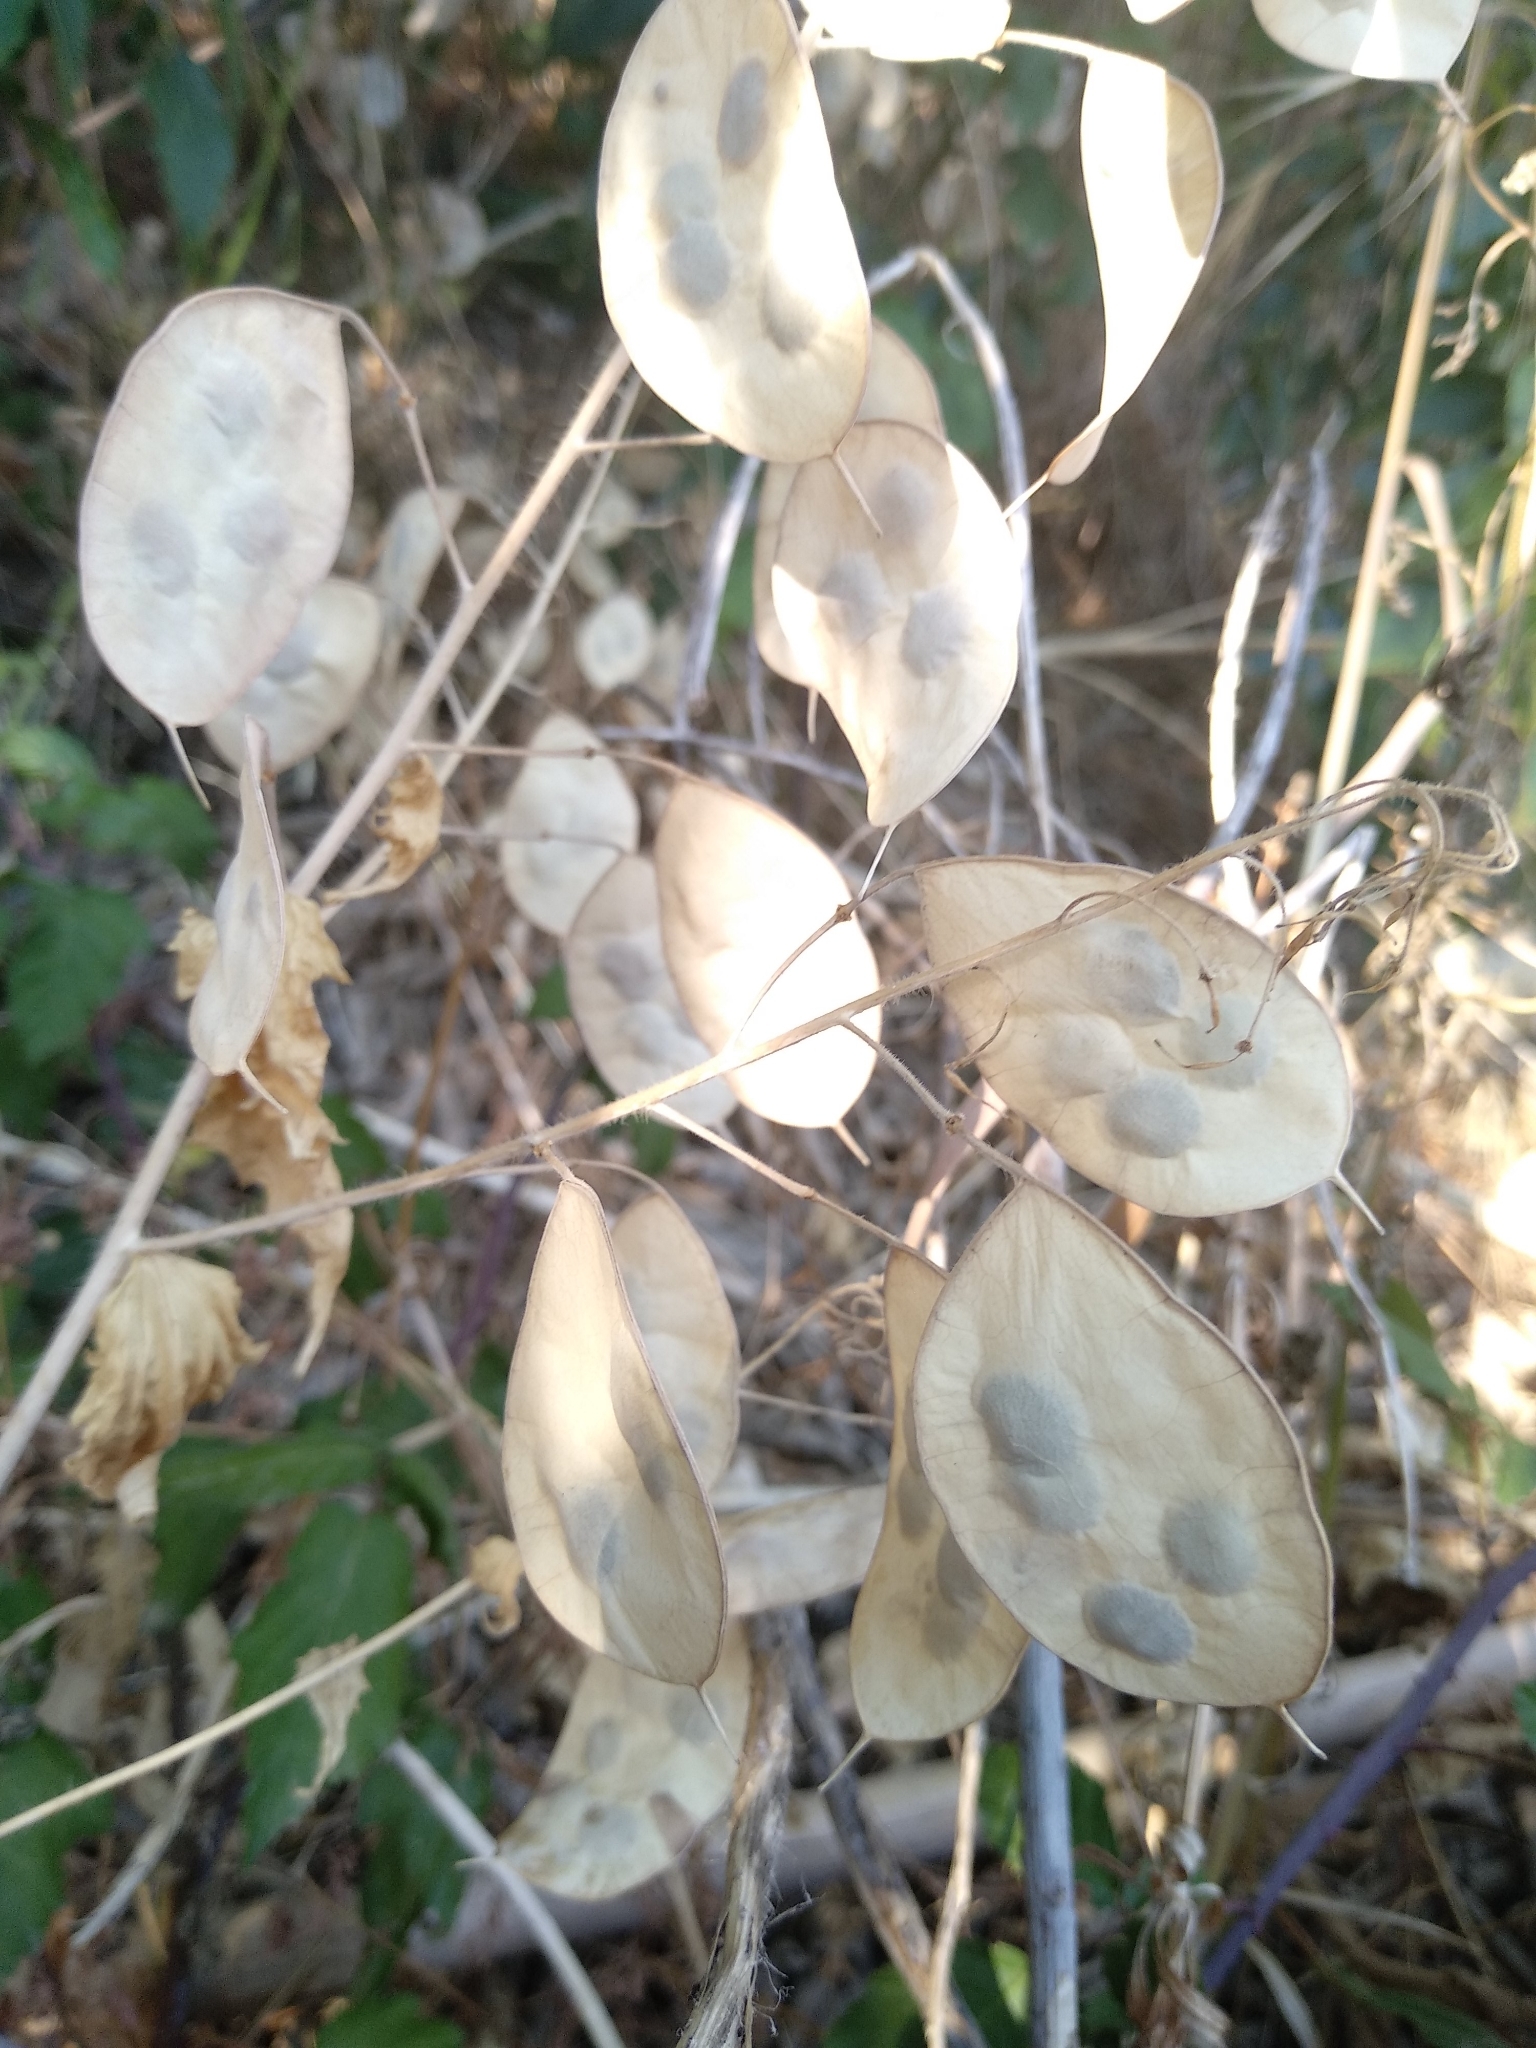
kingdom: Plantae
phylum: Tracheophyta
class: Magnoliopsida
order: Brassicales
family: Brassicaceae
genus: Lunaria
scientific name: Lunaria annua
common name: Honesty
